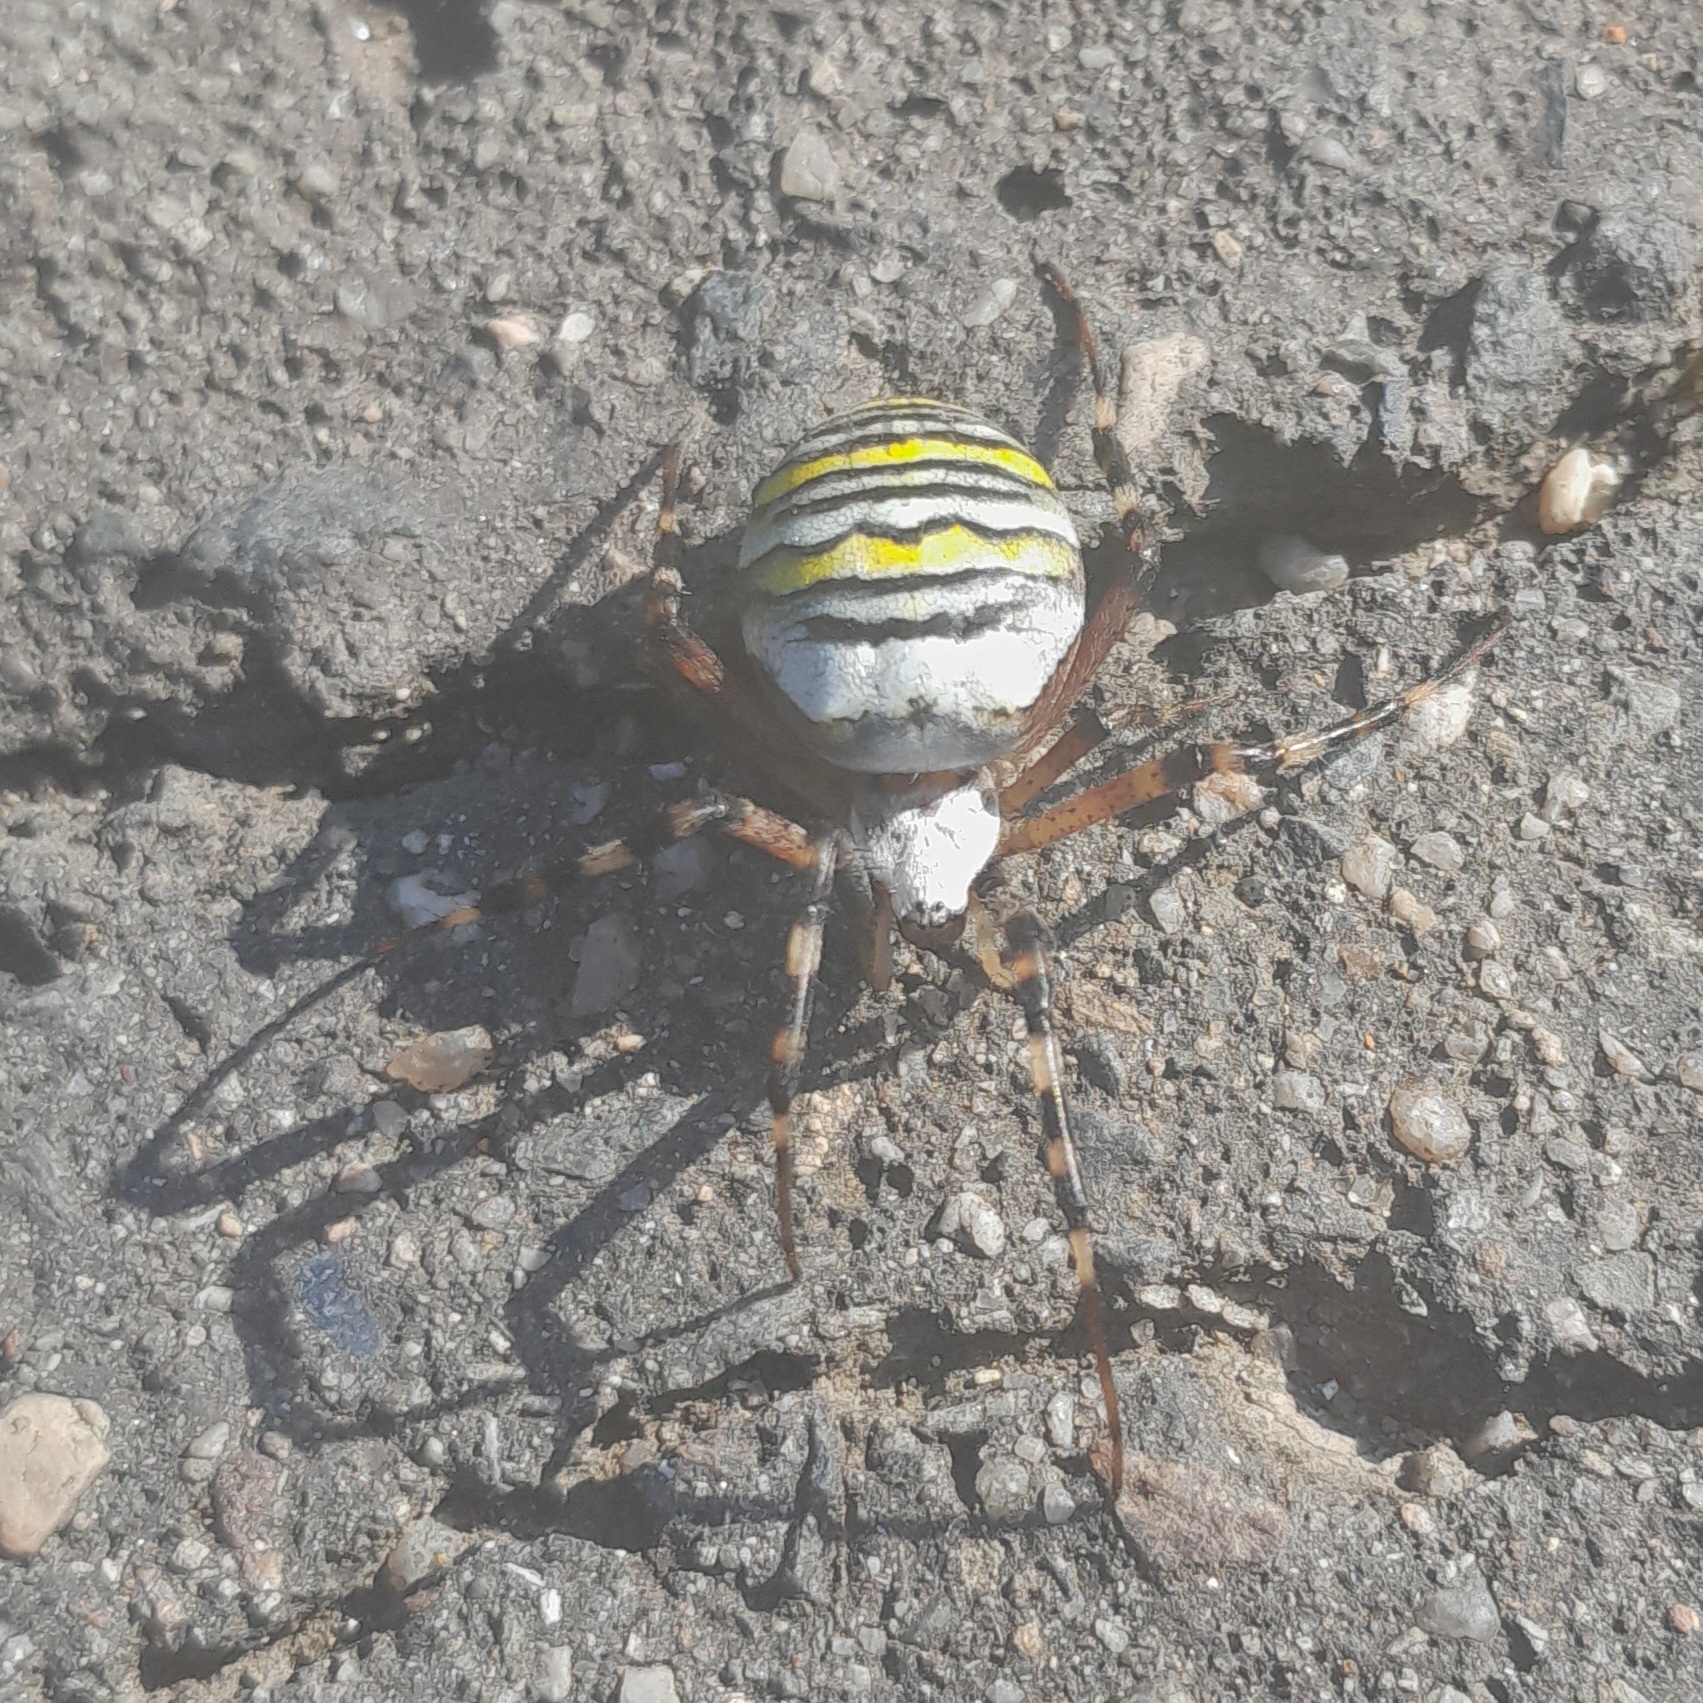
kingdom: Animalia
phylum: Arthropoda
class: Arachnida
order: Araneae
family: Araneidae
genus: Argiope
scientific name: Argiope bruennichi
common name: Wasp spider
